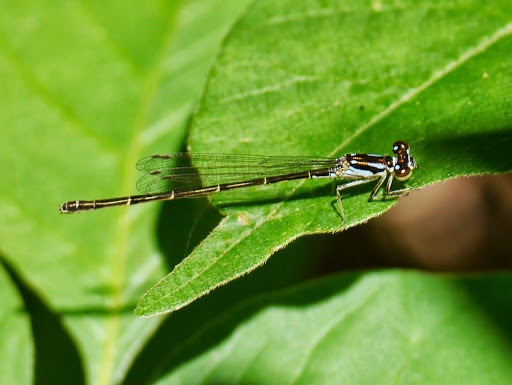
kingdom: Animalia
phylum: Arthropoda
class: Insecta
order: Odonata
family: Coenagrionidae
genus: Ischnura
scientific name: Ischnura posita
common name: Fragile forktail
